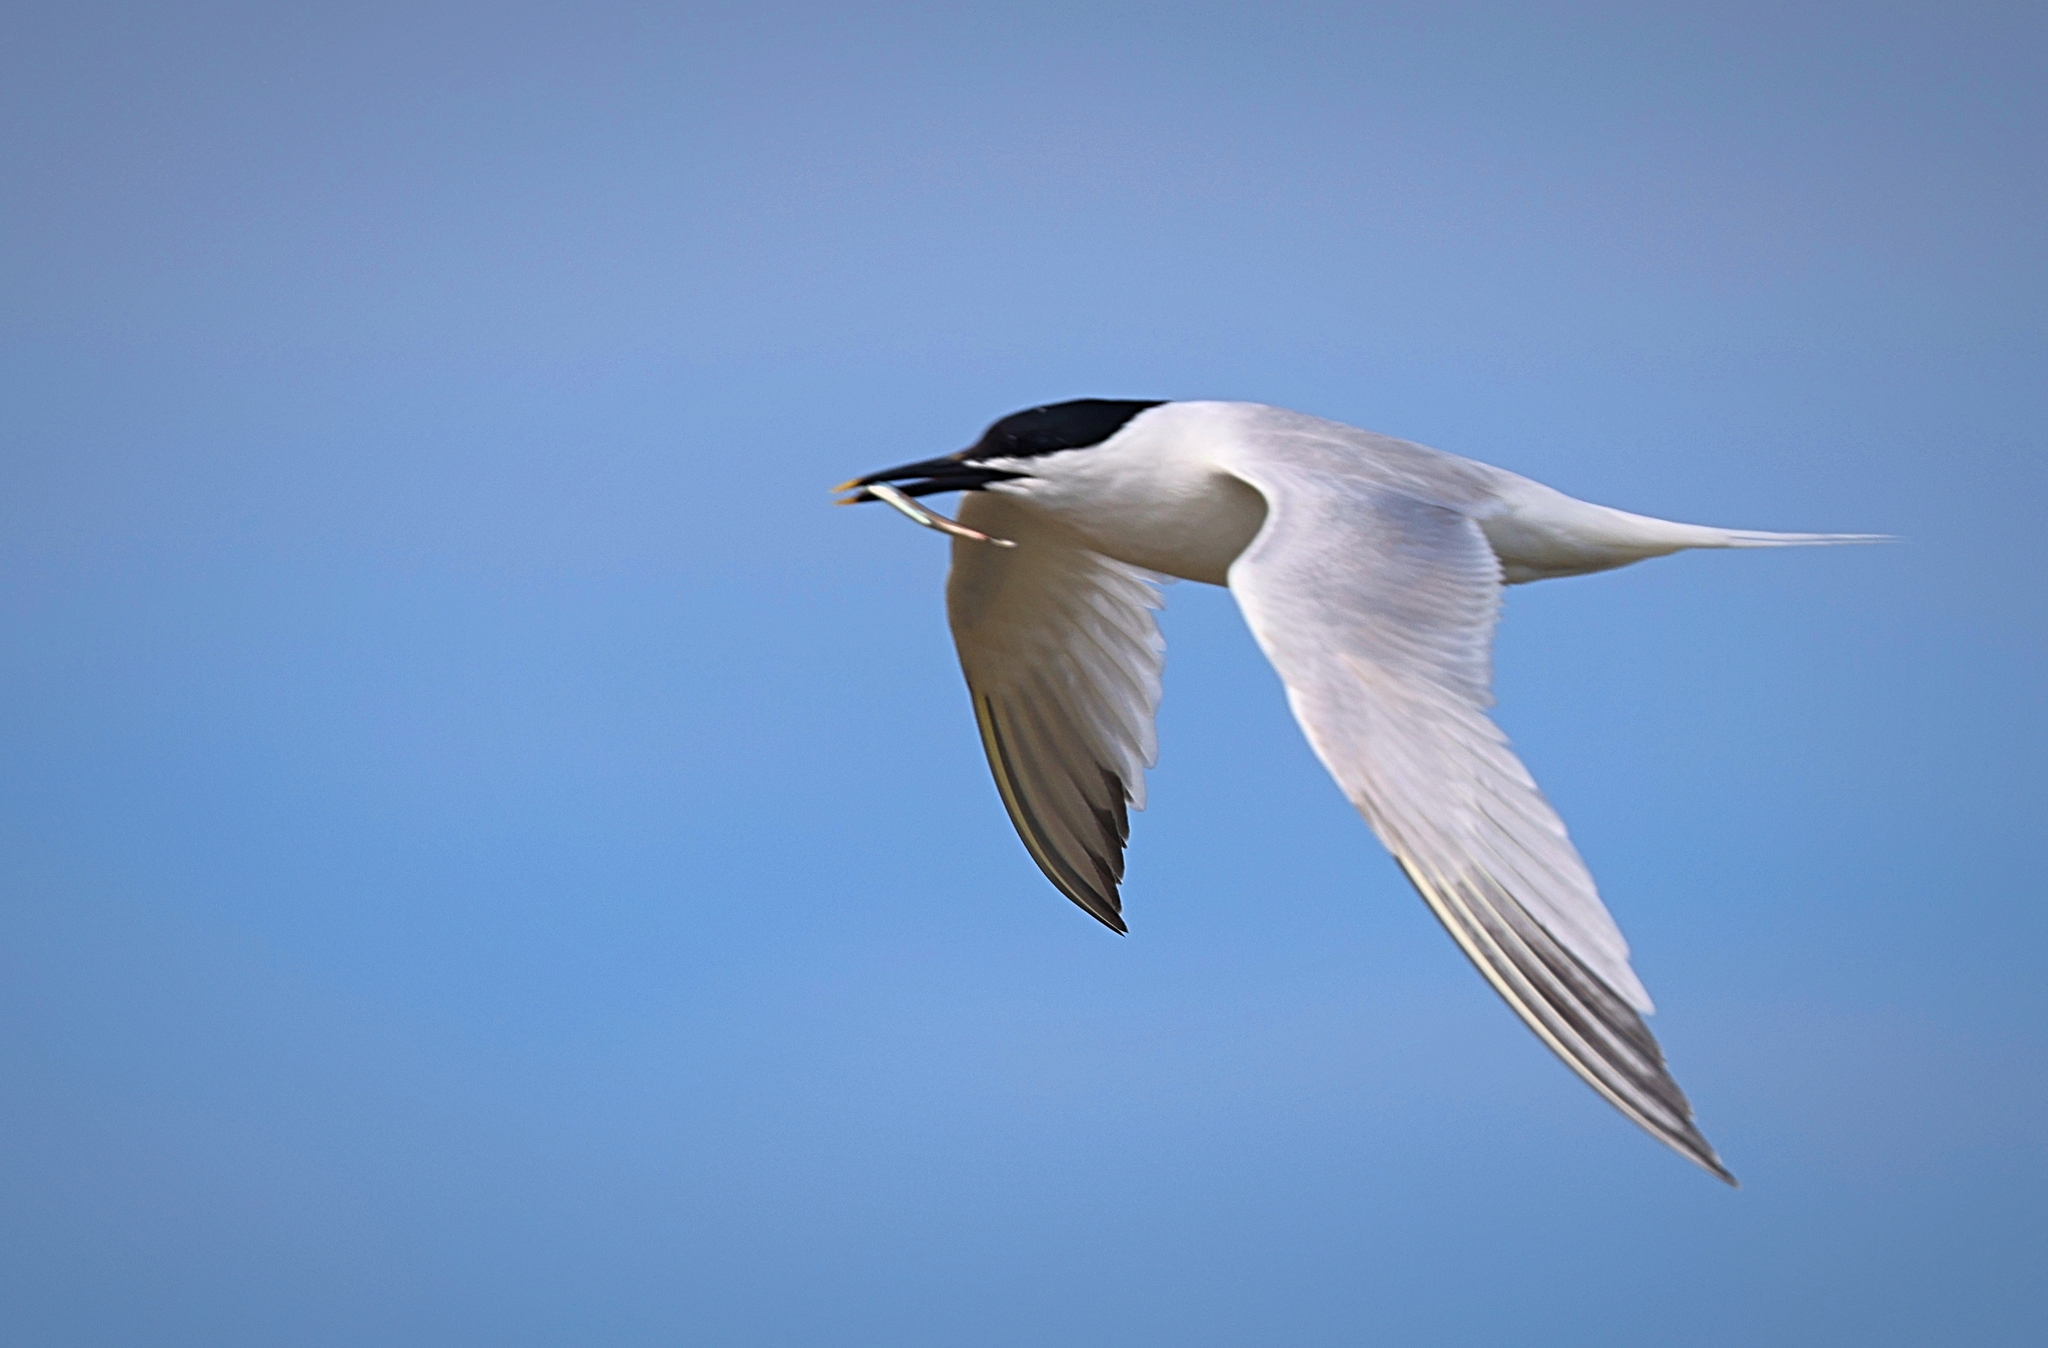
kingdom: Animalia
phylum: Chordata
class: Aves
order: Charadriiformes
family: Laridae
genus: Thalasseus
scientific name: Thalasseus sandvicensis
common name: Sandwich tern
